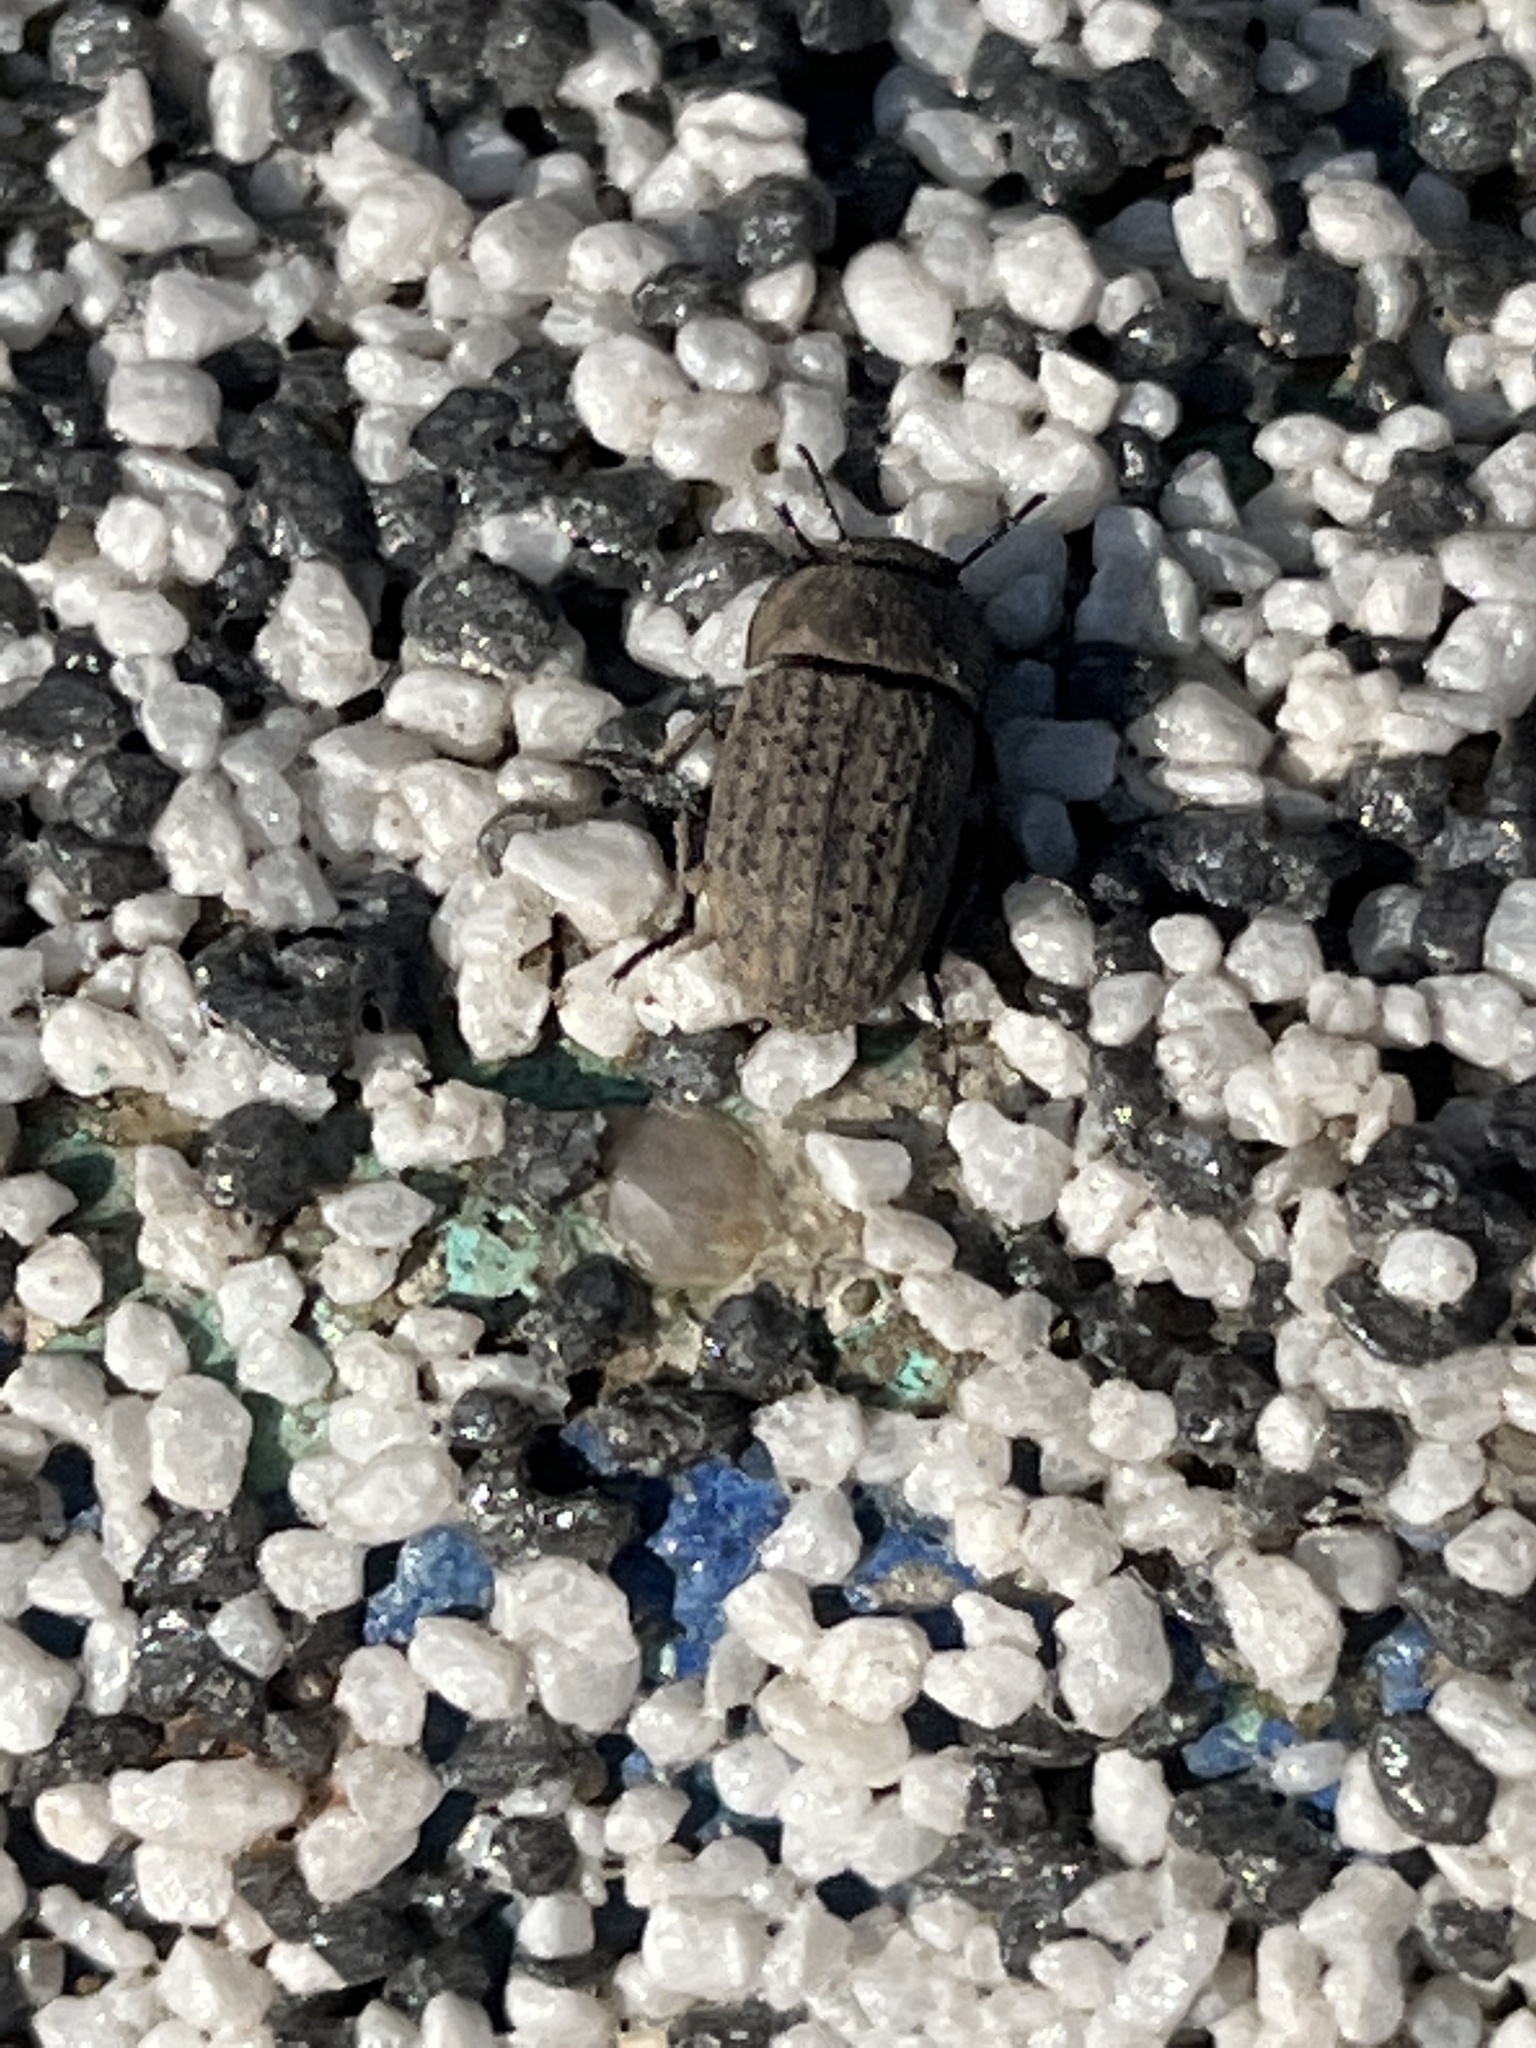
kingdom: Animalia
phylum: Arthropoda
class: Insecta
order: Coleoptera
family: Tenebrionidae
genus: Opatrum
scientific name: Opatrum sabulosum
